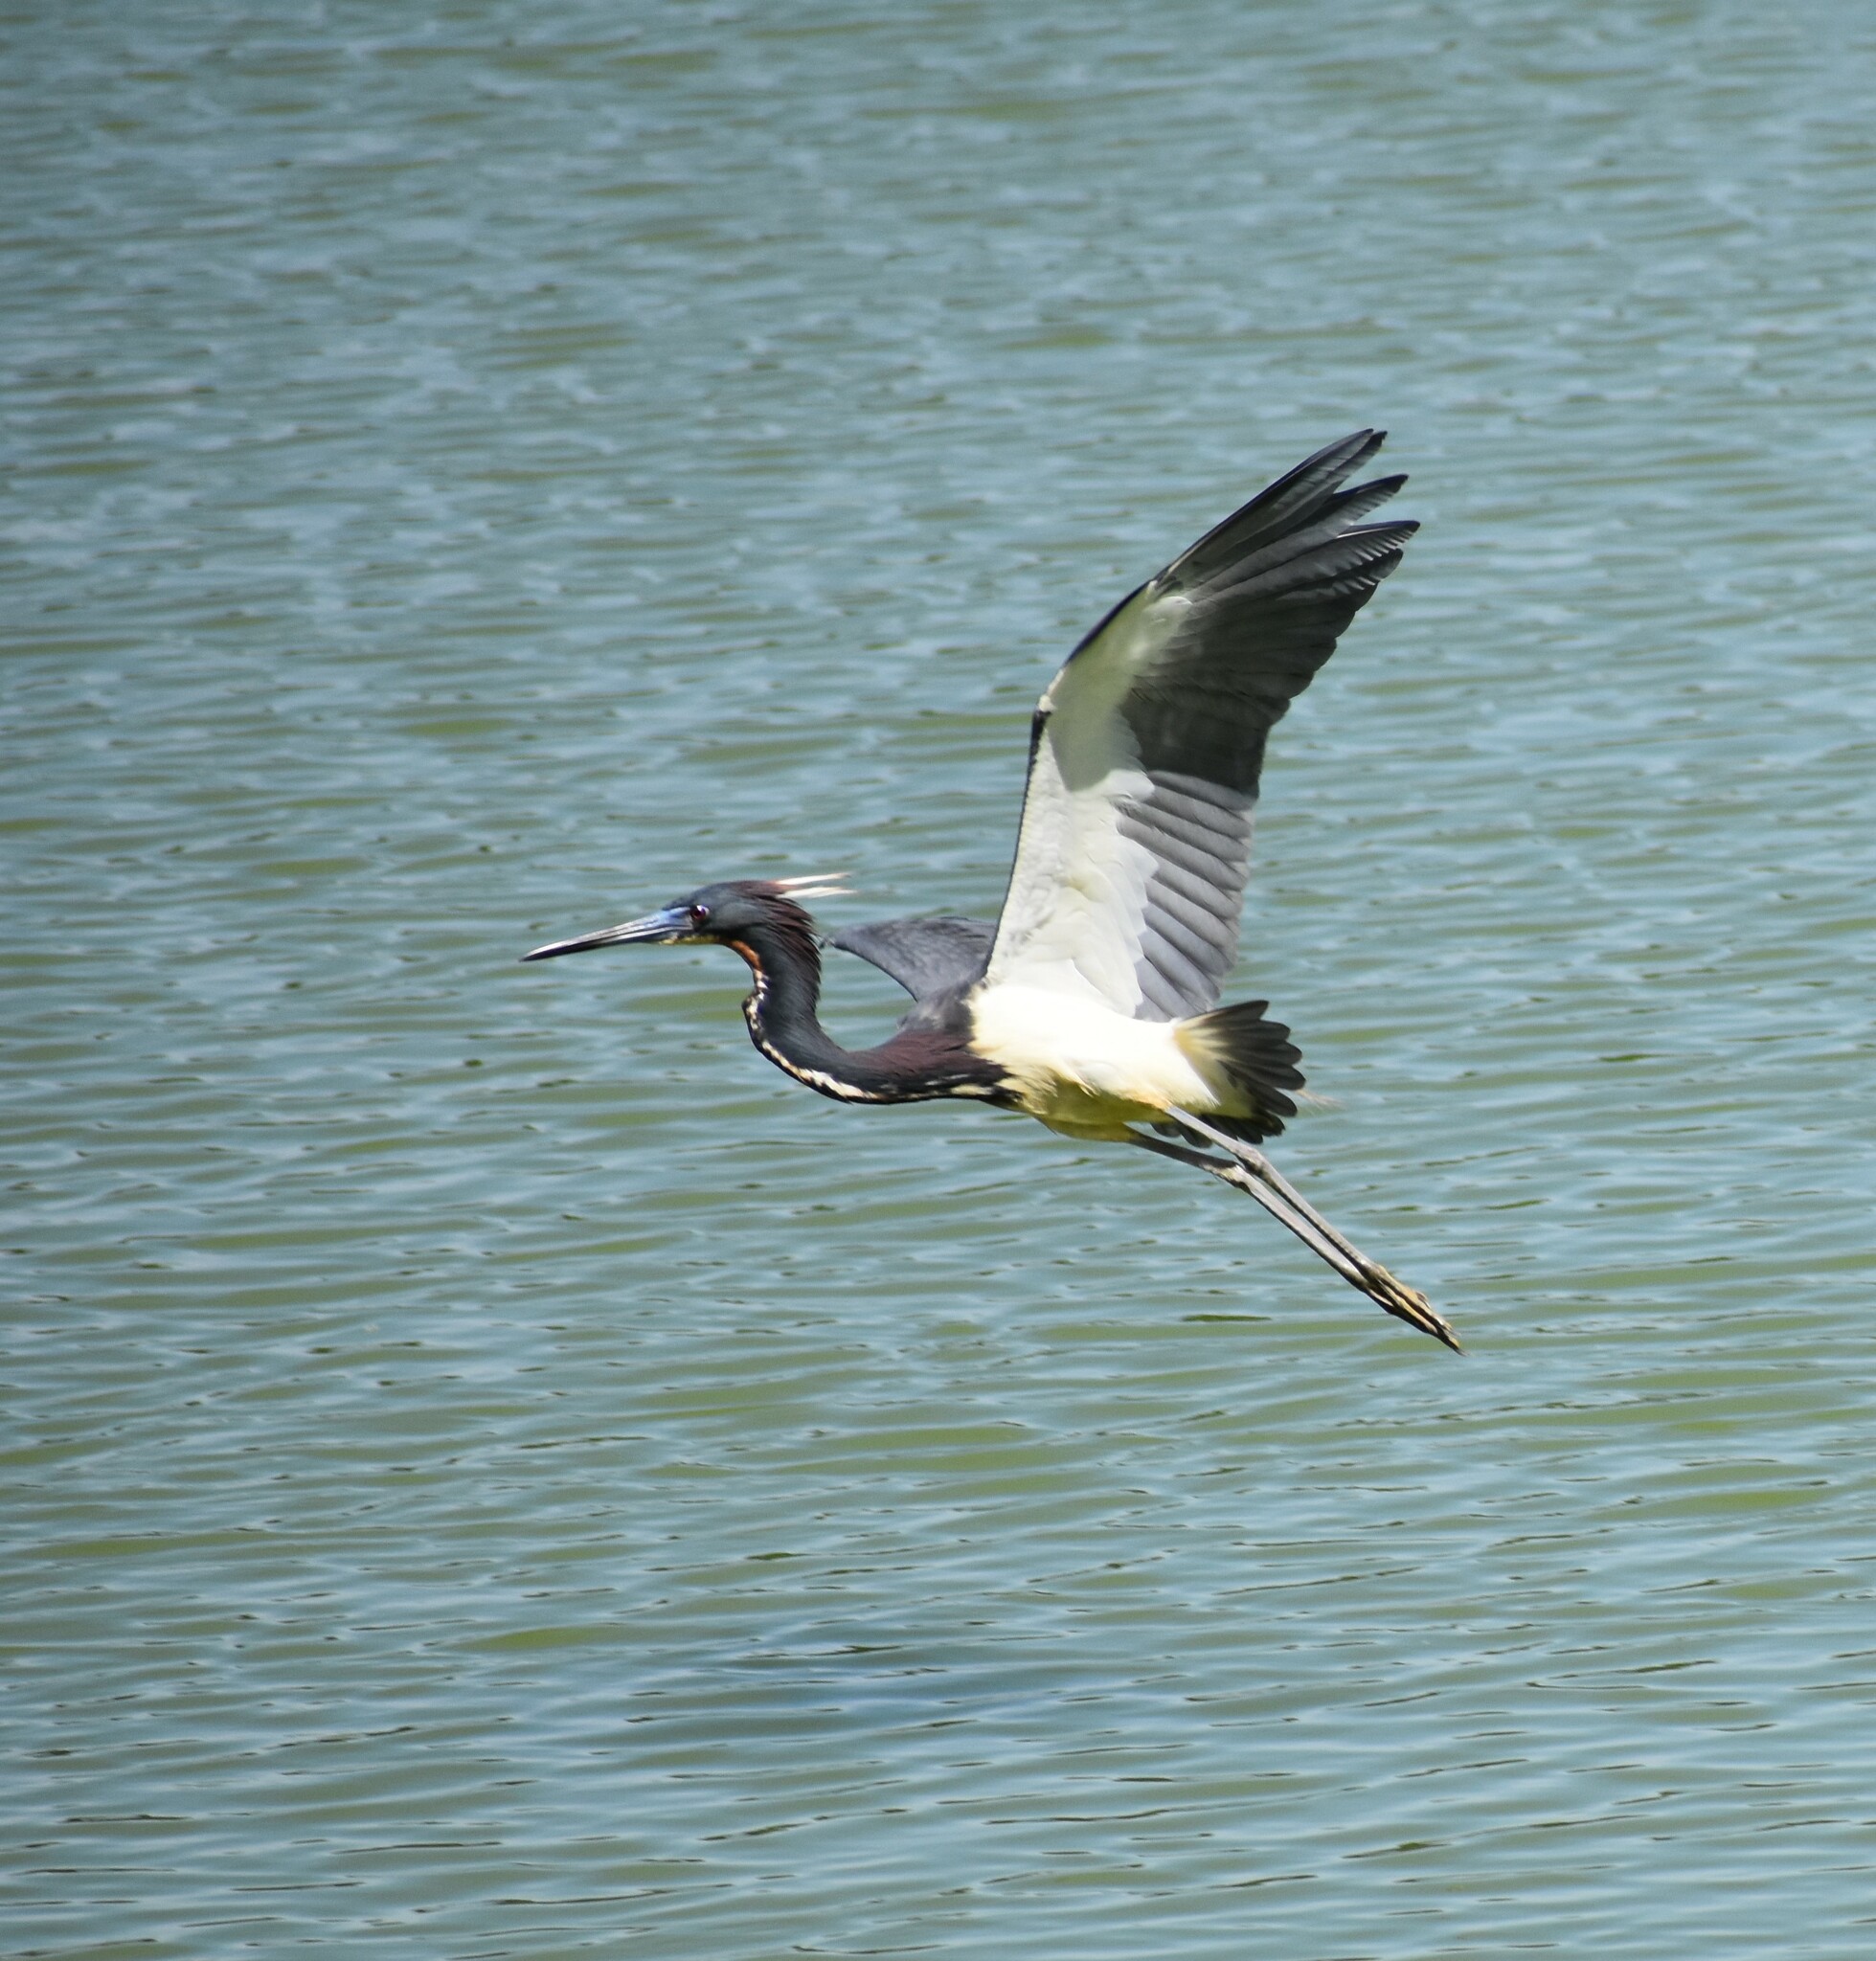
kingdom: Animalia
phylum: Chordata
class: Aves
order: Pelecaniformes
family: Ardeidae
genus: Egretta
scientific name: Egretta tricolor
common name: Tricolored heron
